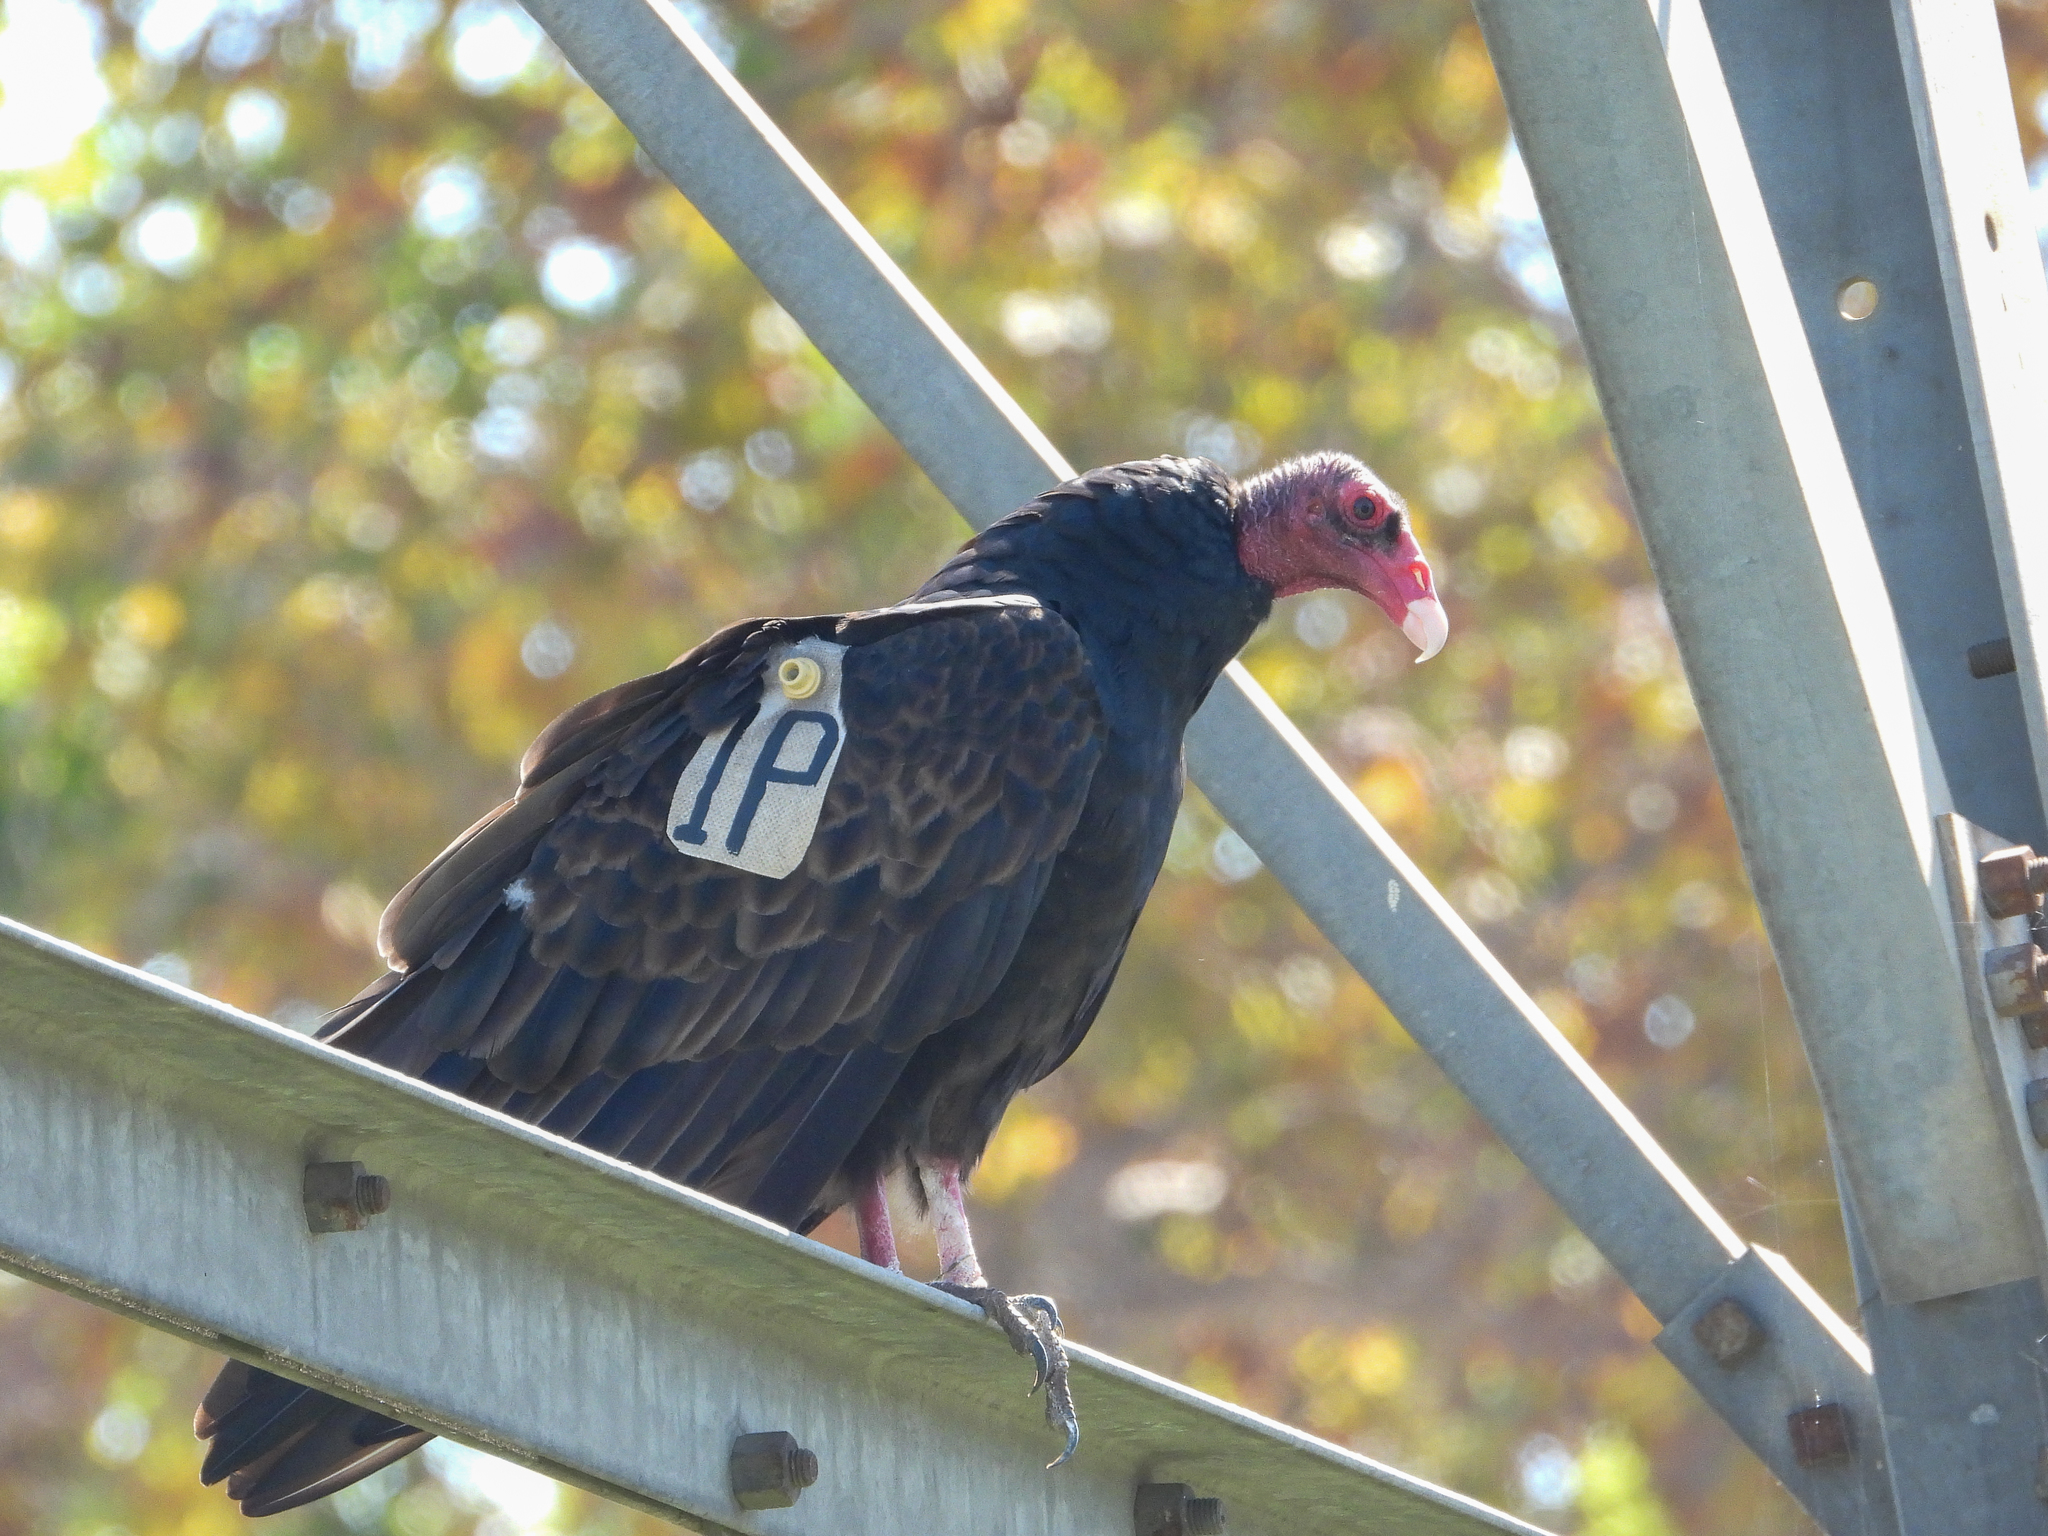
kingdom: Animalia
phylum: Chordata
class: Aves
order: Accipitriformes
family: Cathartidae
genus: Cathartes
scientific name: Cathartes aura
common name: Turkey vulture
